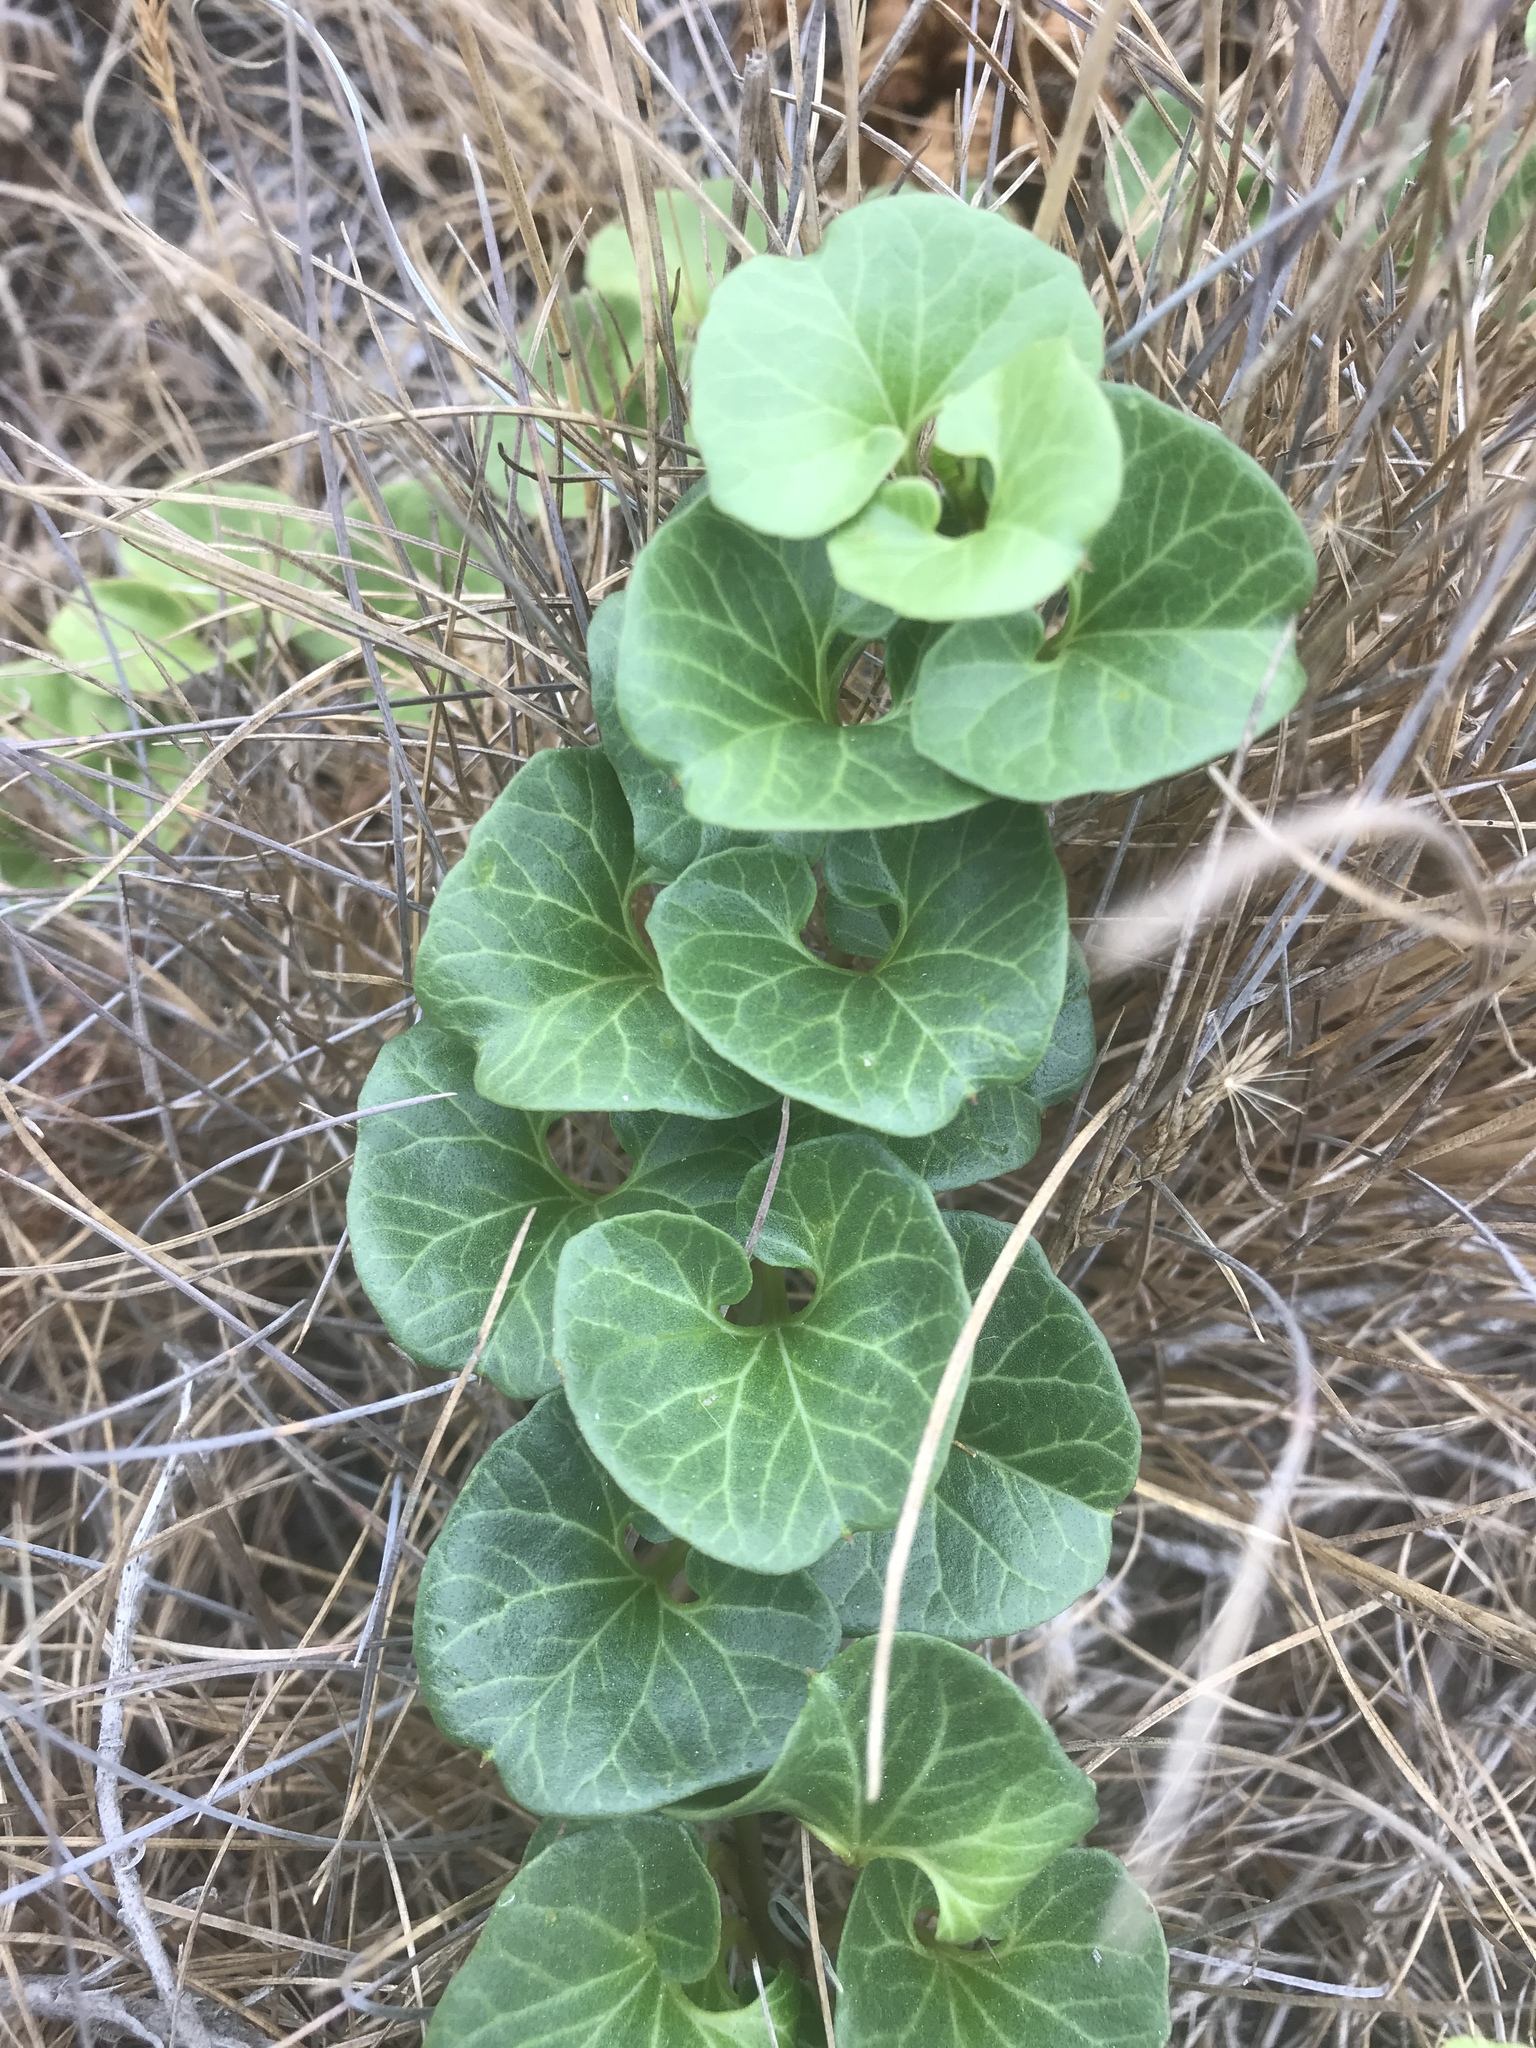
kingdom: Plantae
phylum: Tracheophyta
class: Magnoliopsida
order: Solanales
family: Convolvulaceae
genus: Calystegia
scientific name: Calystegia soldanella
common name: Sea bindweed
